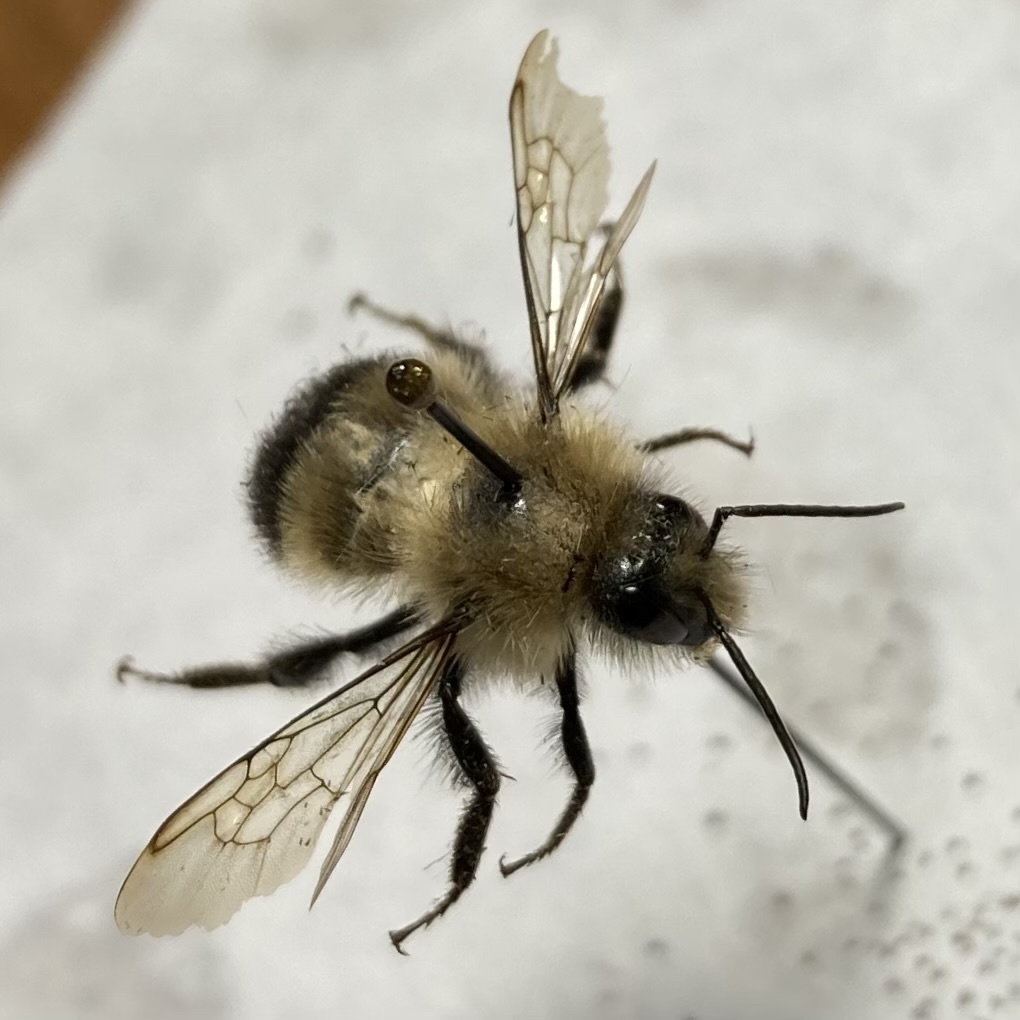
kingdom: Animalia
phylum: Arthropoda
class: Insecta
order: Hymenoptera
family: Apidae
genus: Bombus
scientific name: Bombus vagans
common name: Half-black bumble bee
